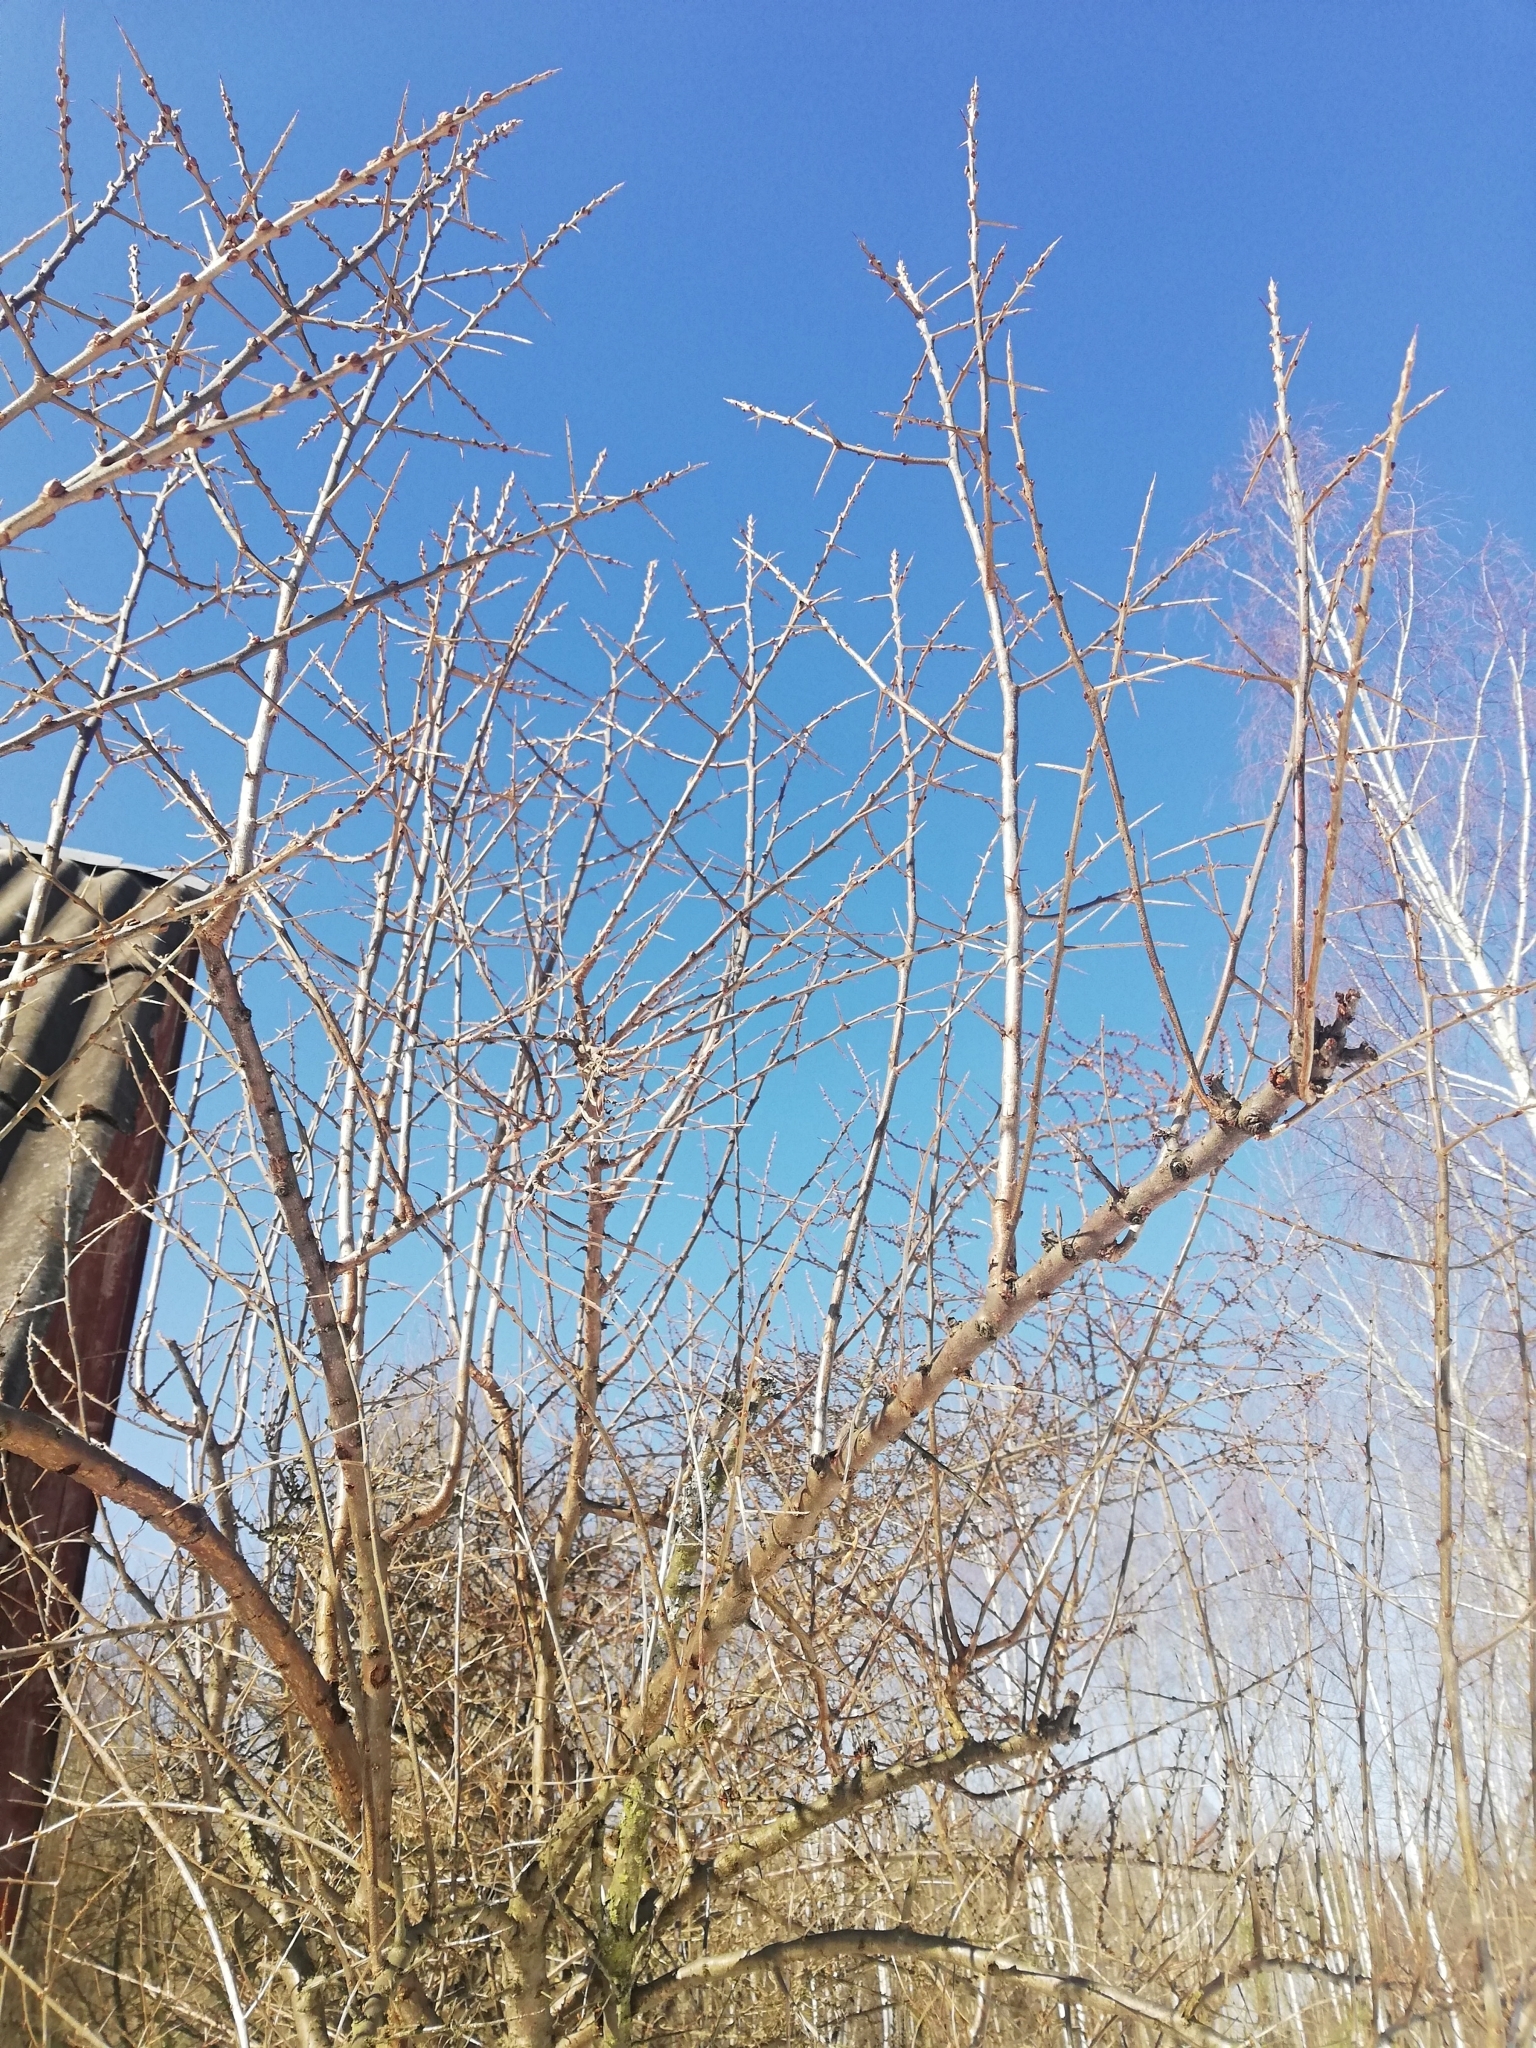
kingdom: Plantae
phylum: Tracheophyta
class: Magnoliopsida
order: Rosales
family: Elaeagnaceae
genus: Hippophae
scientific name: Hippophae rhamnoides
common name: Sea-buckthorn
